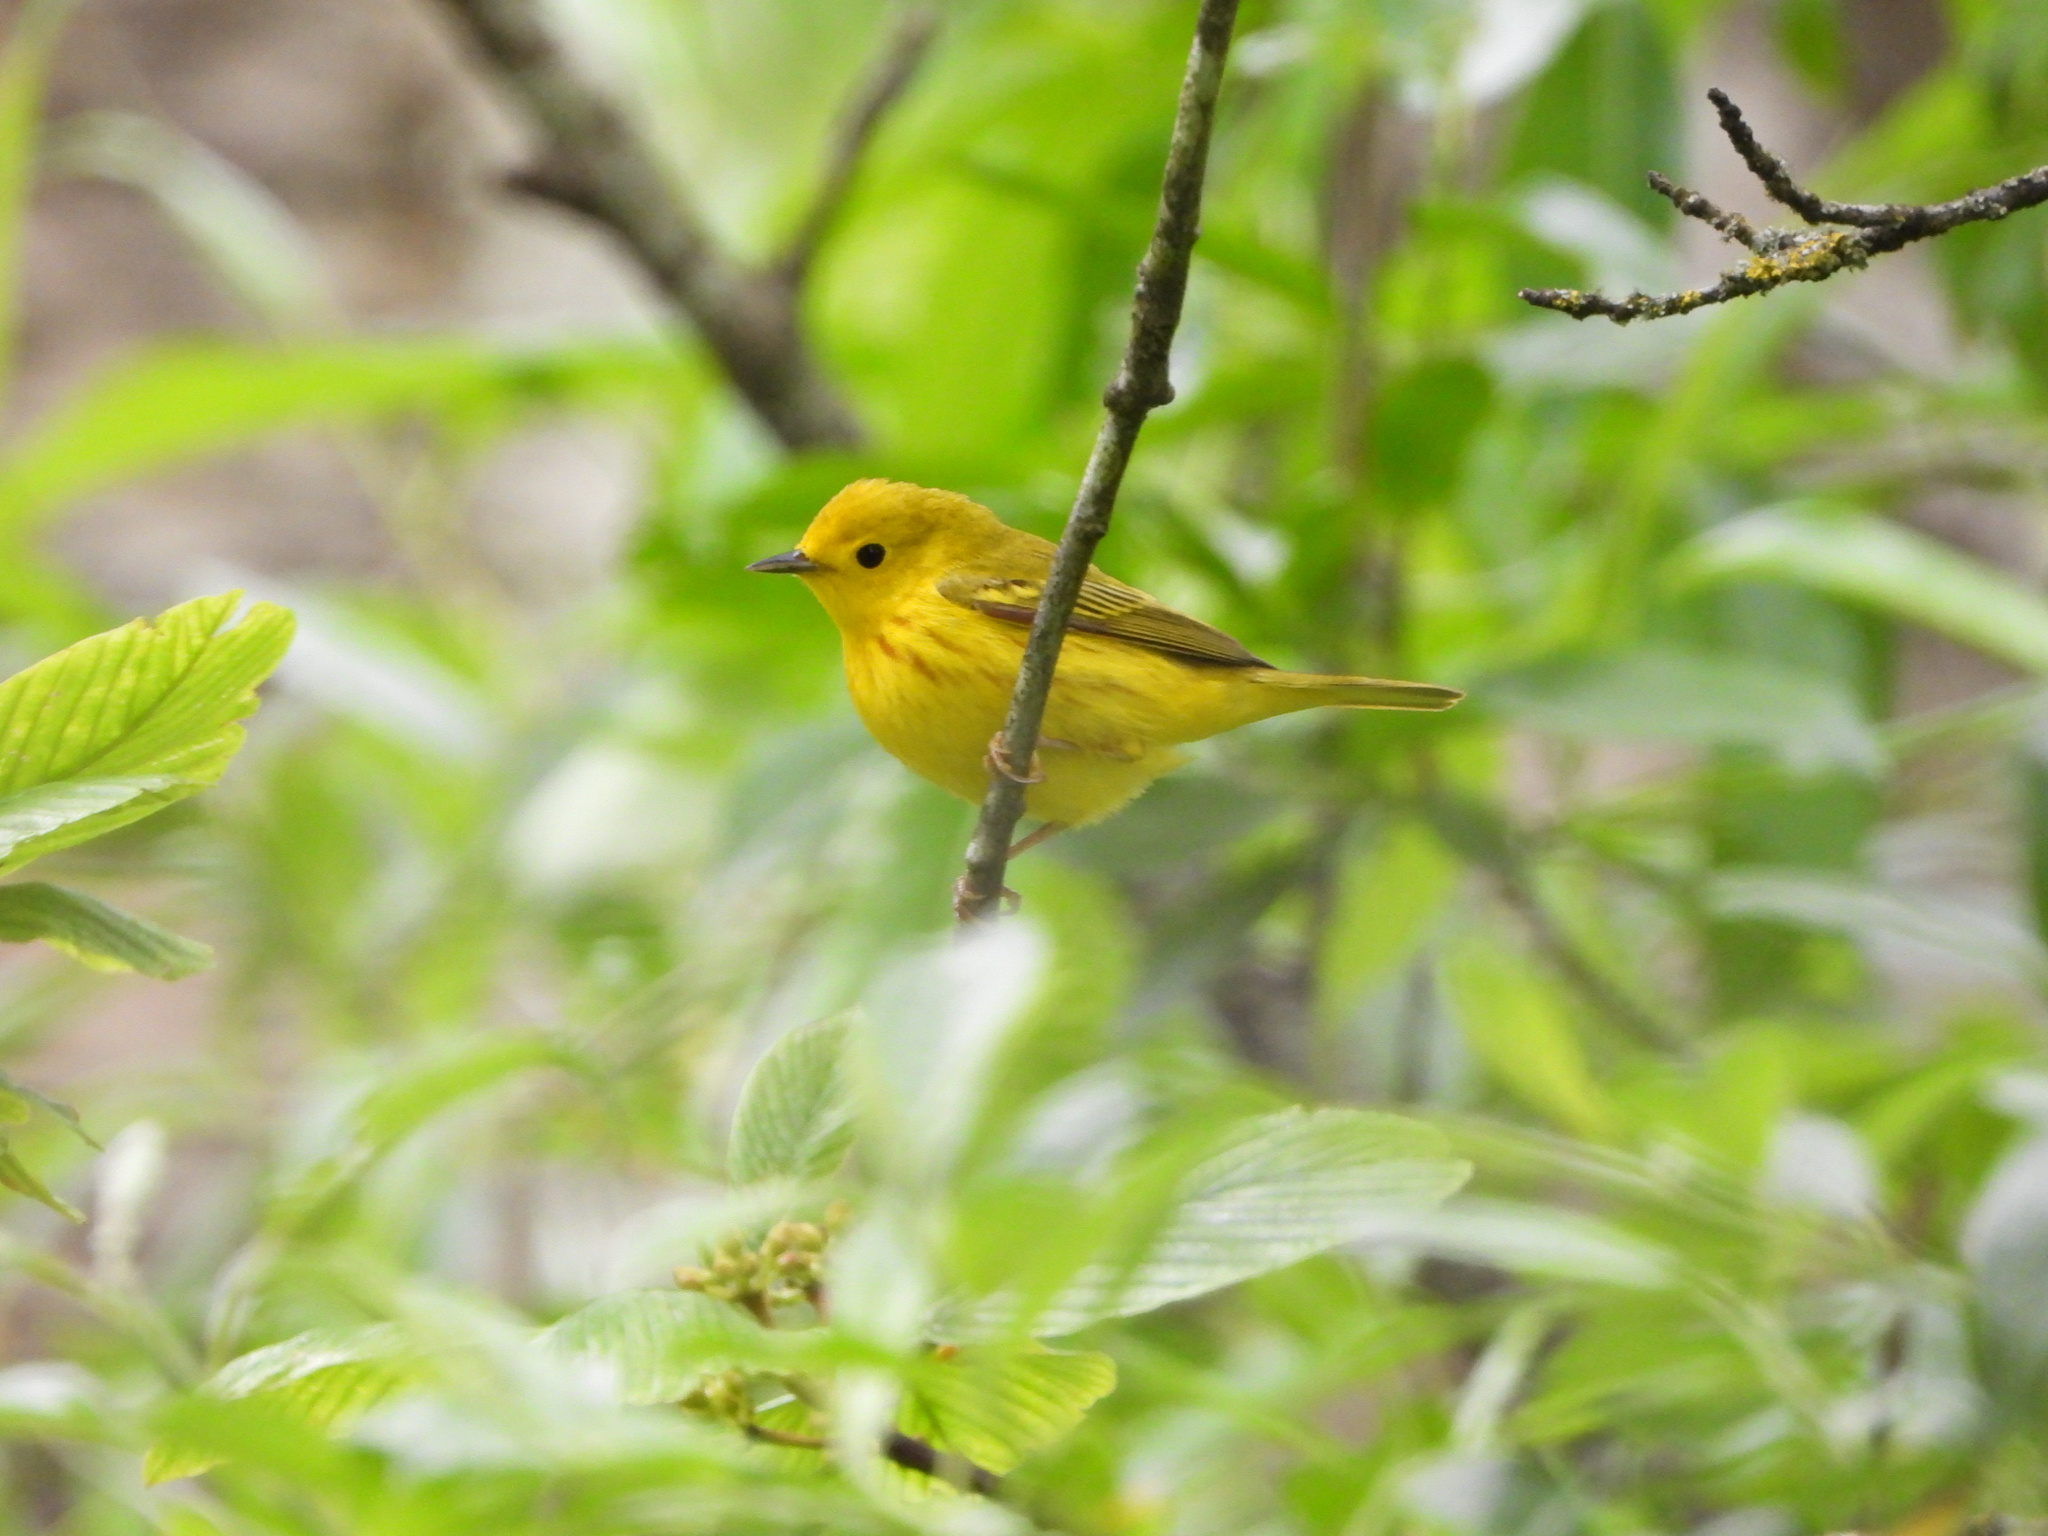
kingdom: Animalia
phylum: Chordata
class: Aves
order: Passeriformes
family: Parulidae
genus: Setophaga
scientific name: Setophaga petechia
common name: Yellow warbler
